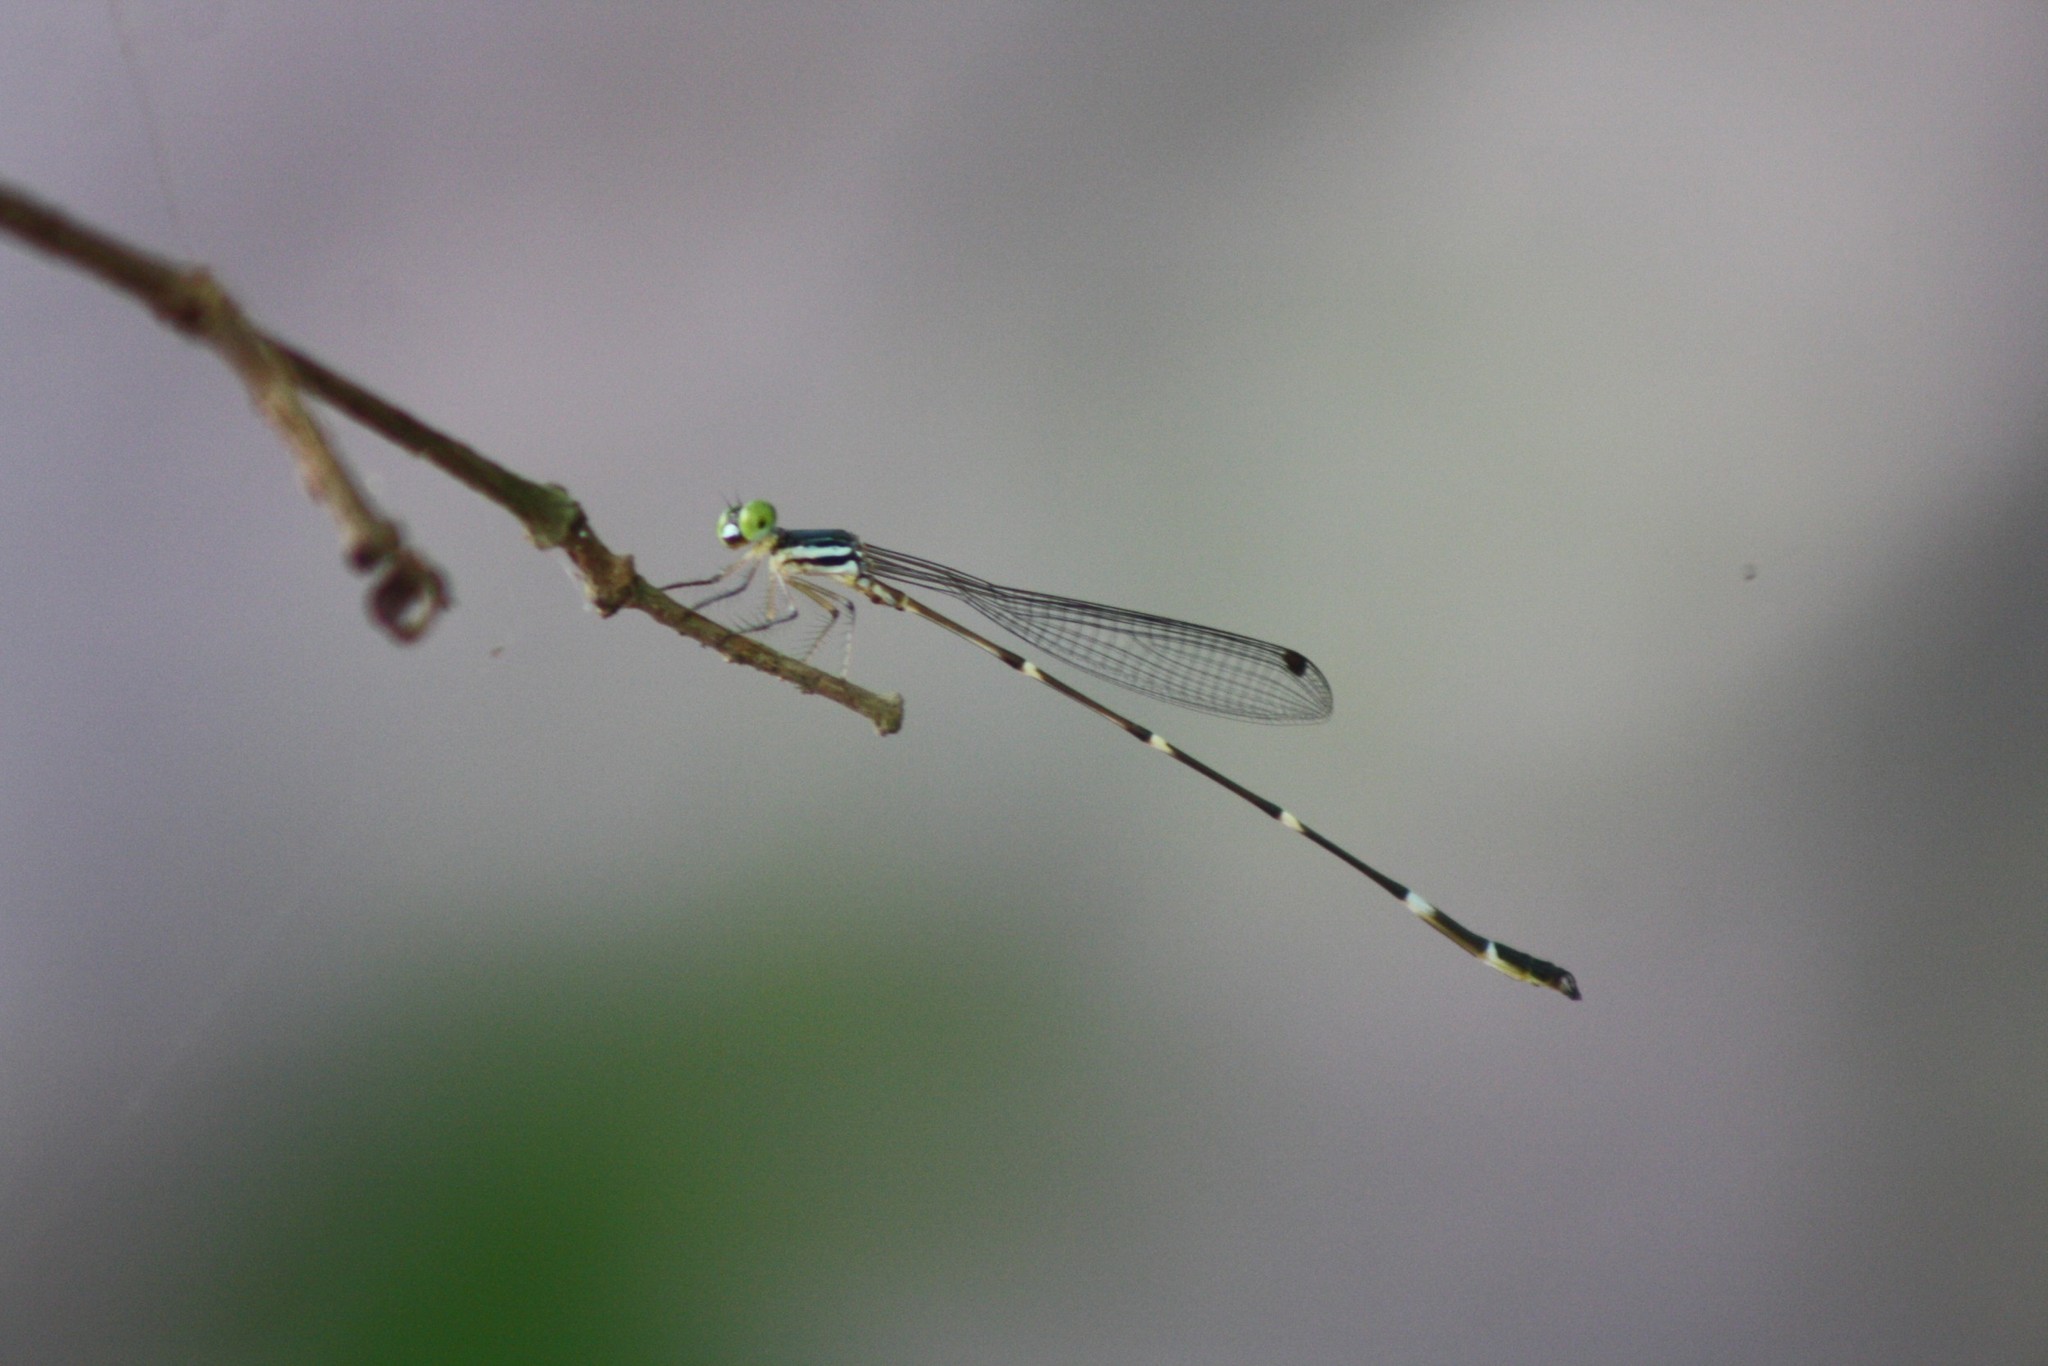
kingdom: Animalia
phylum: Arthropoda
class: Insecta
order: Odonata
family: Platystictidae
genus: Protosticta
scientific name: Protosticta ponmudiensis
